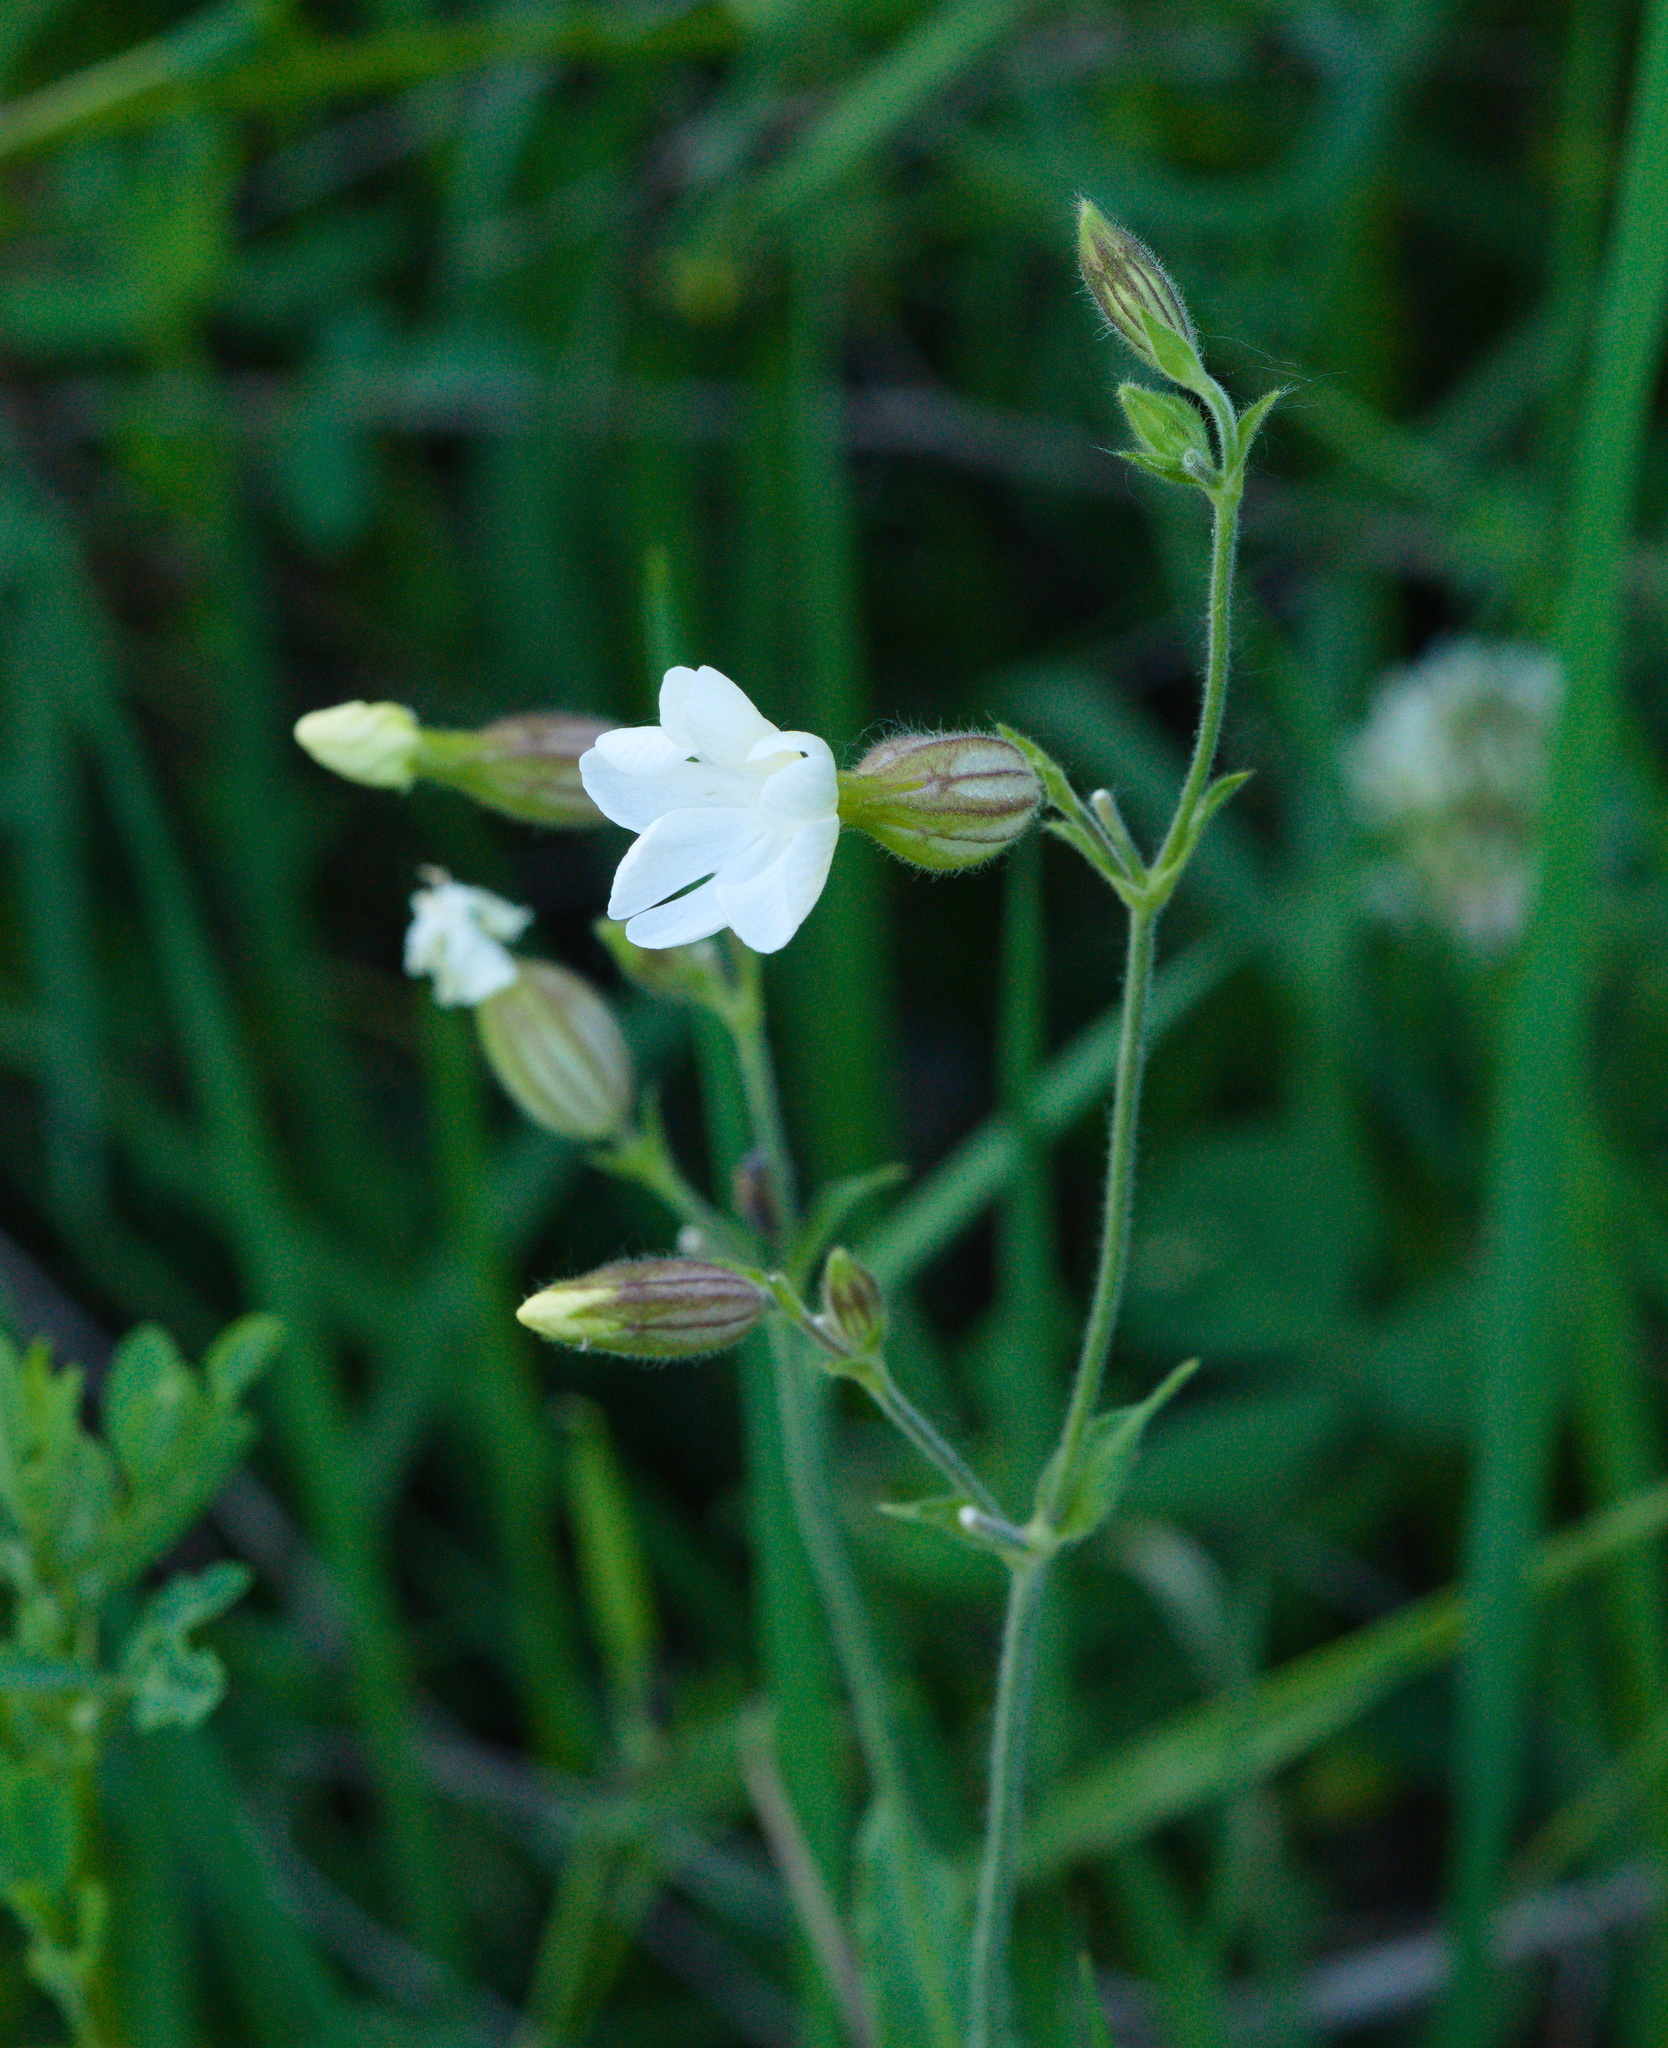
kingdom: Plantae
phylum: Tracheophyta
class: Magnoliopsida
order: Caryophyllales
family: Caryophyllaceae
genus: Silene
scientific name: Silene latifolia
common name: White campion
